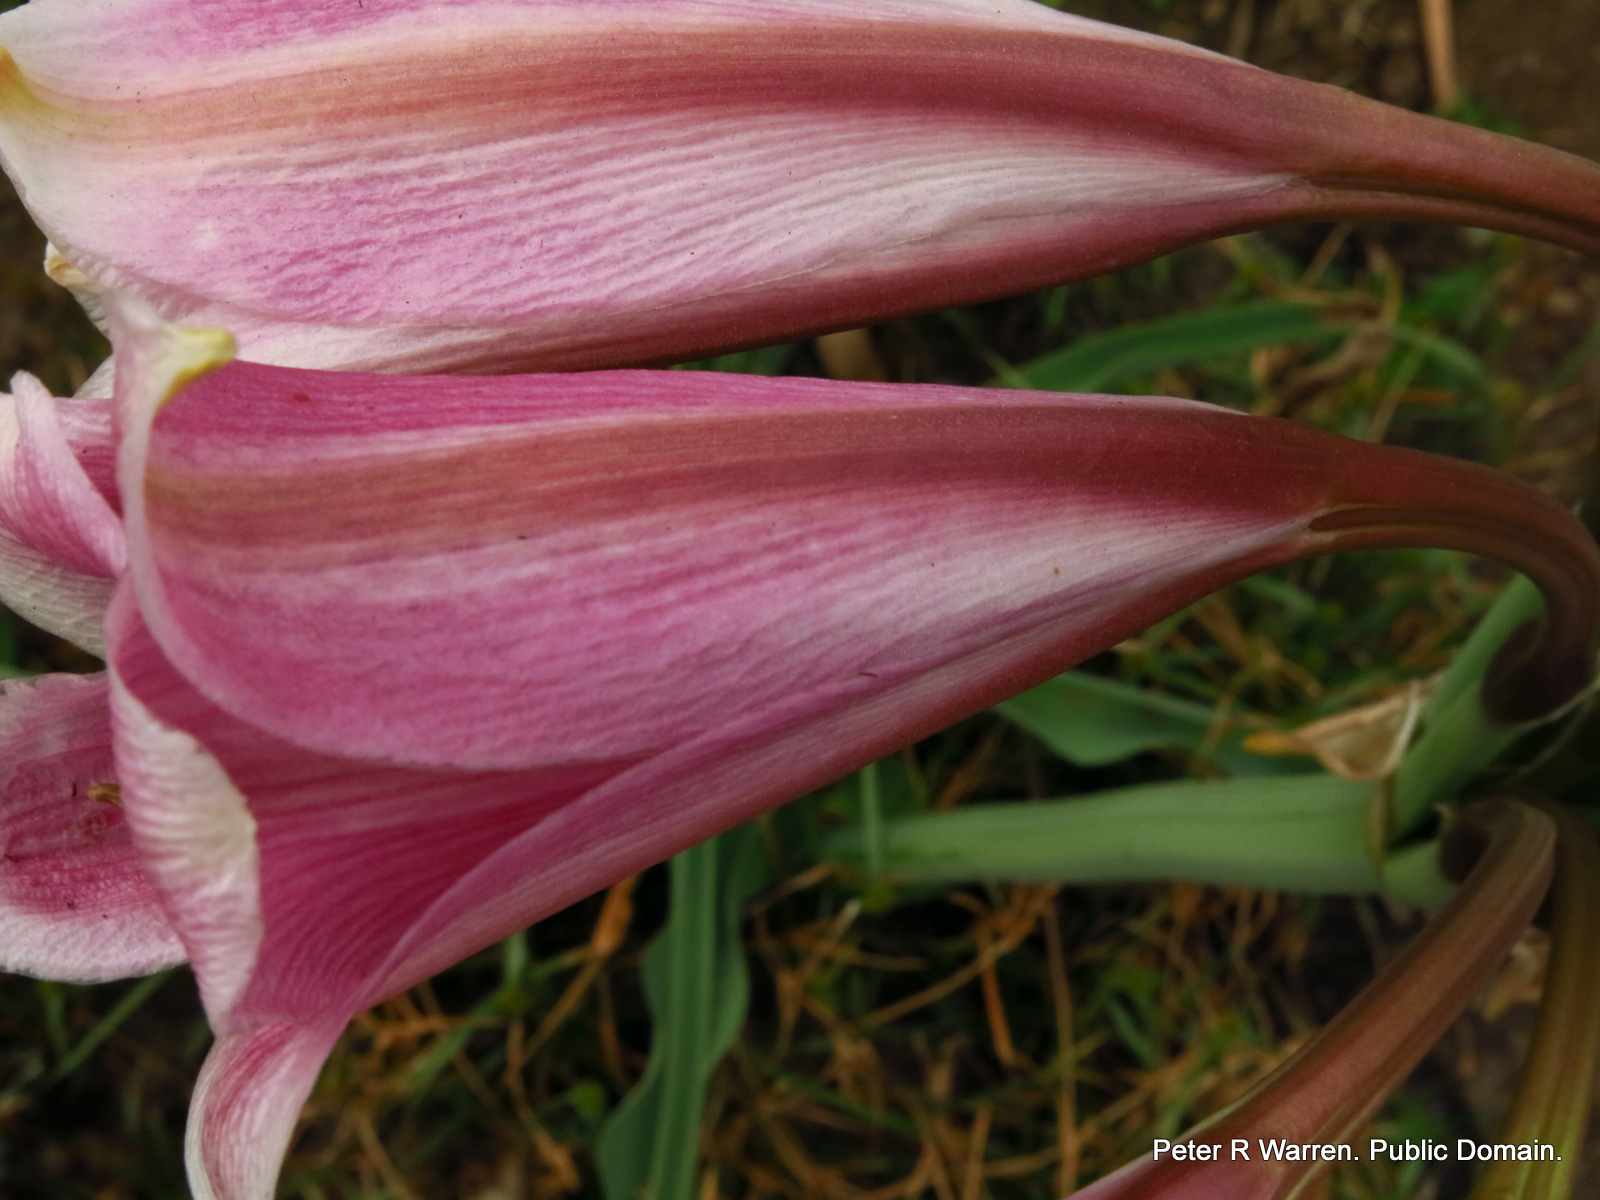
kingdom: Plantae
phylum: Tracheophyta
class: Liliopsida
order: Asparagales
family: Amaryllidaceae
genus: Crinum
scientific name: Crinum bulbispermum
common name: Hardy swamplily
